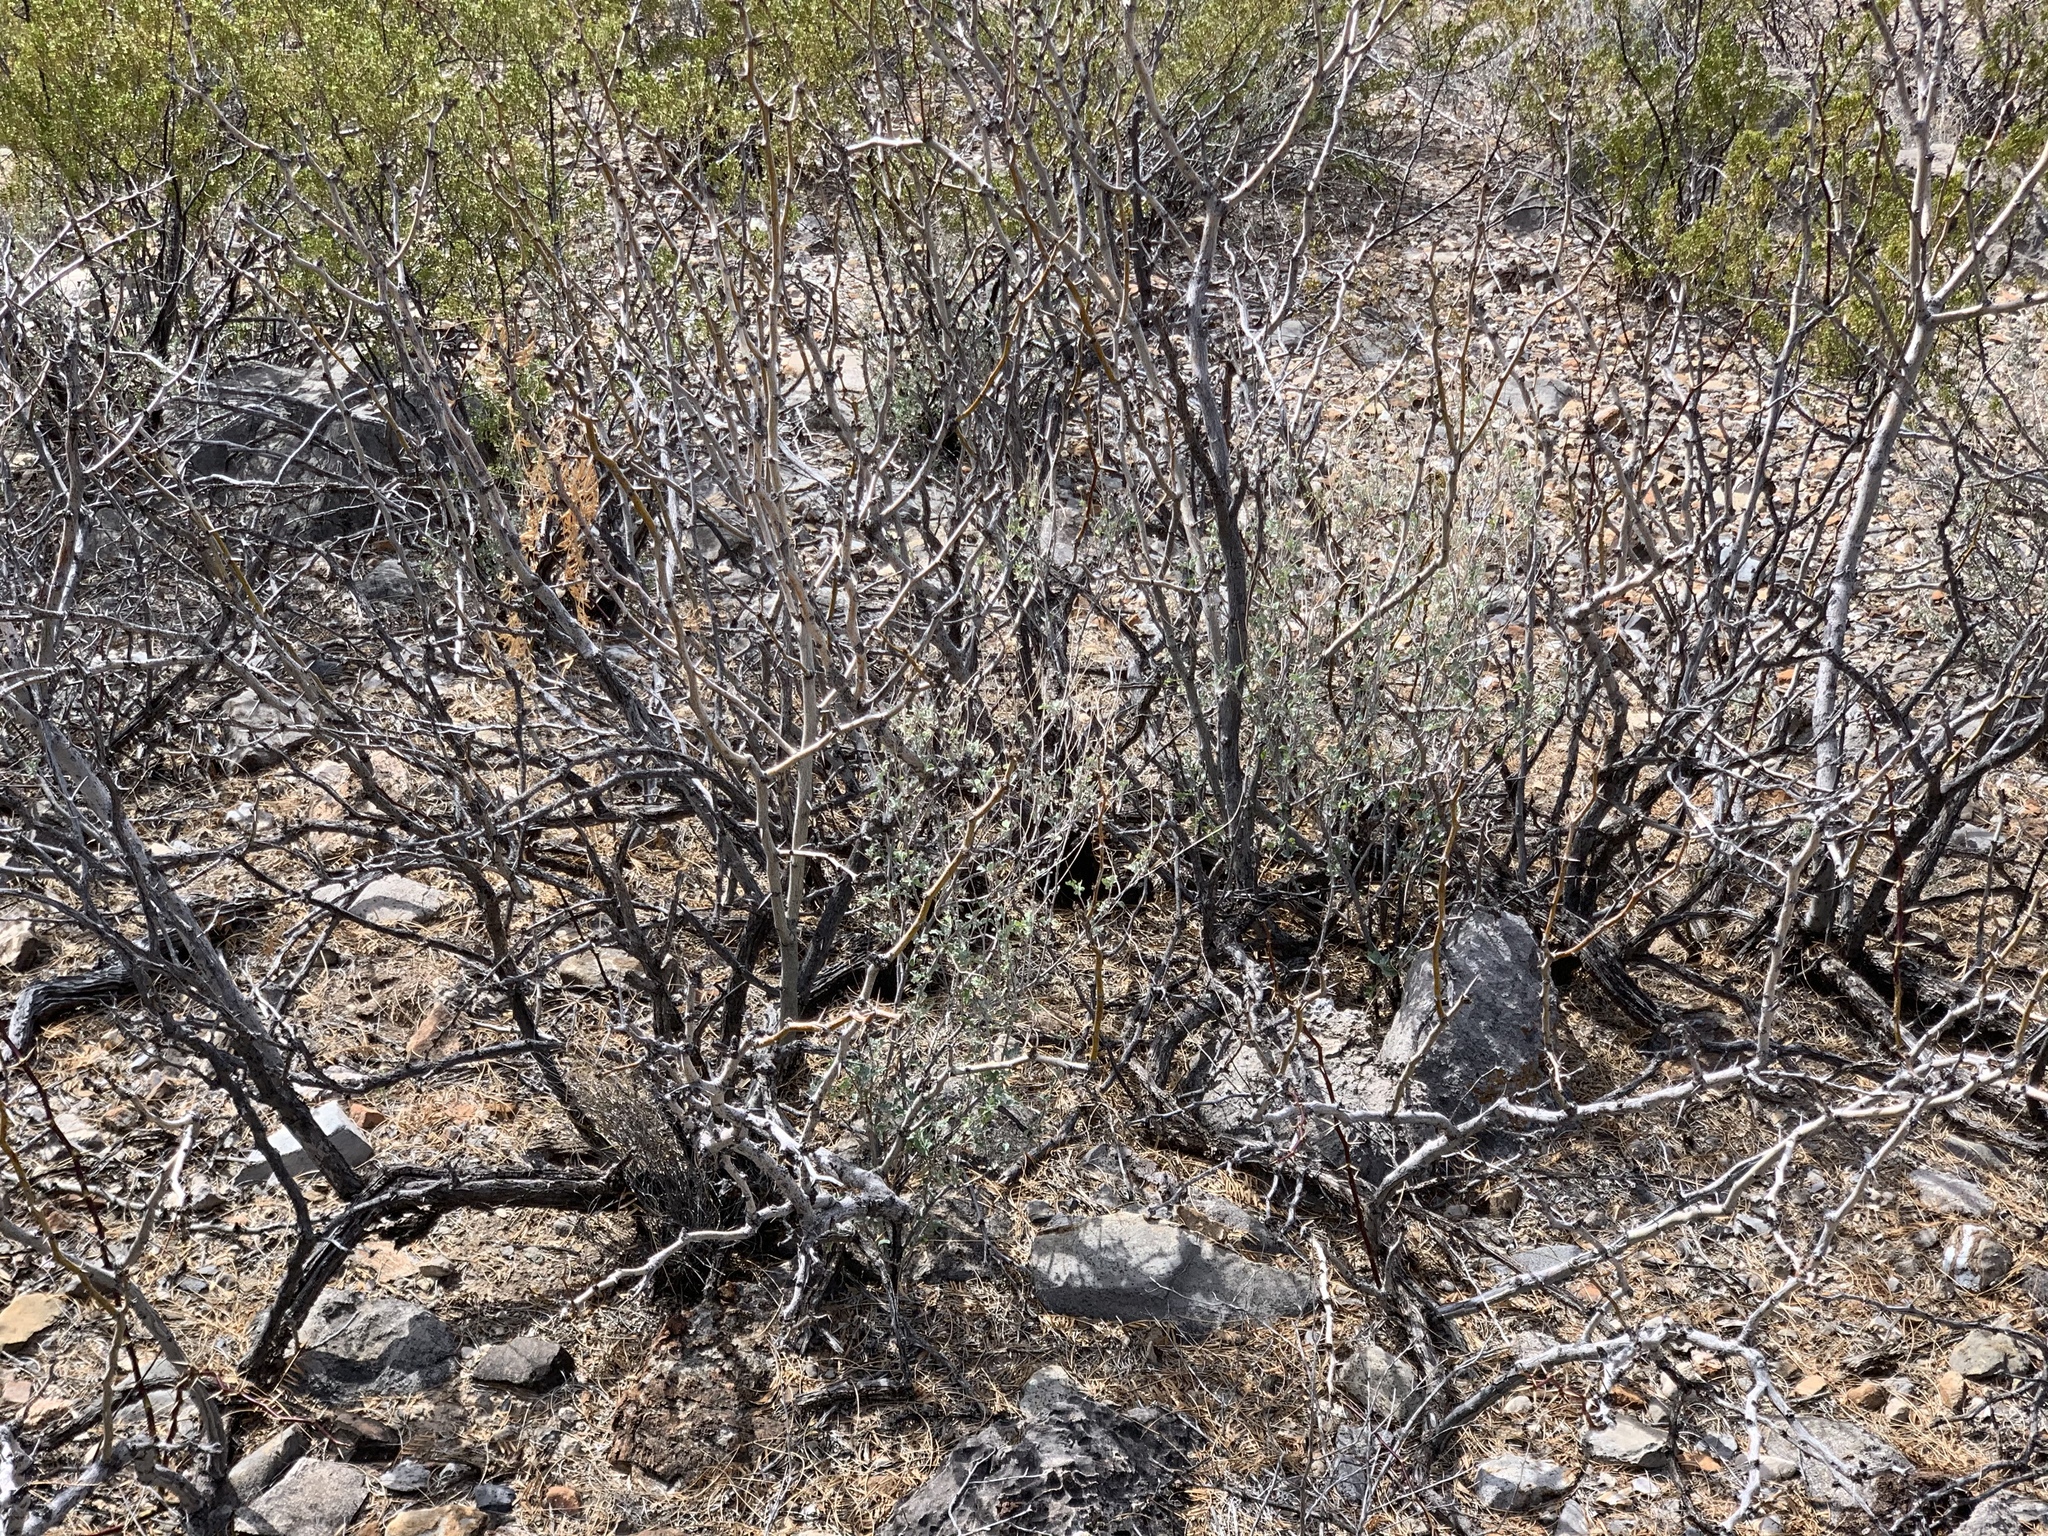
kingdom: Plantae
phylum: Tracheophyta
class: Magnoliopsida
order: Fabales
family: Fabaceae
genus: Prosopis
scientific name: Prosopis glandulosa
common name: Honey mesquite
